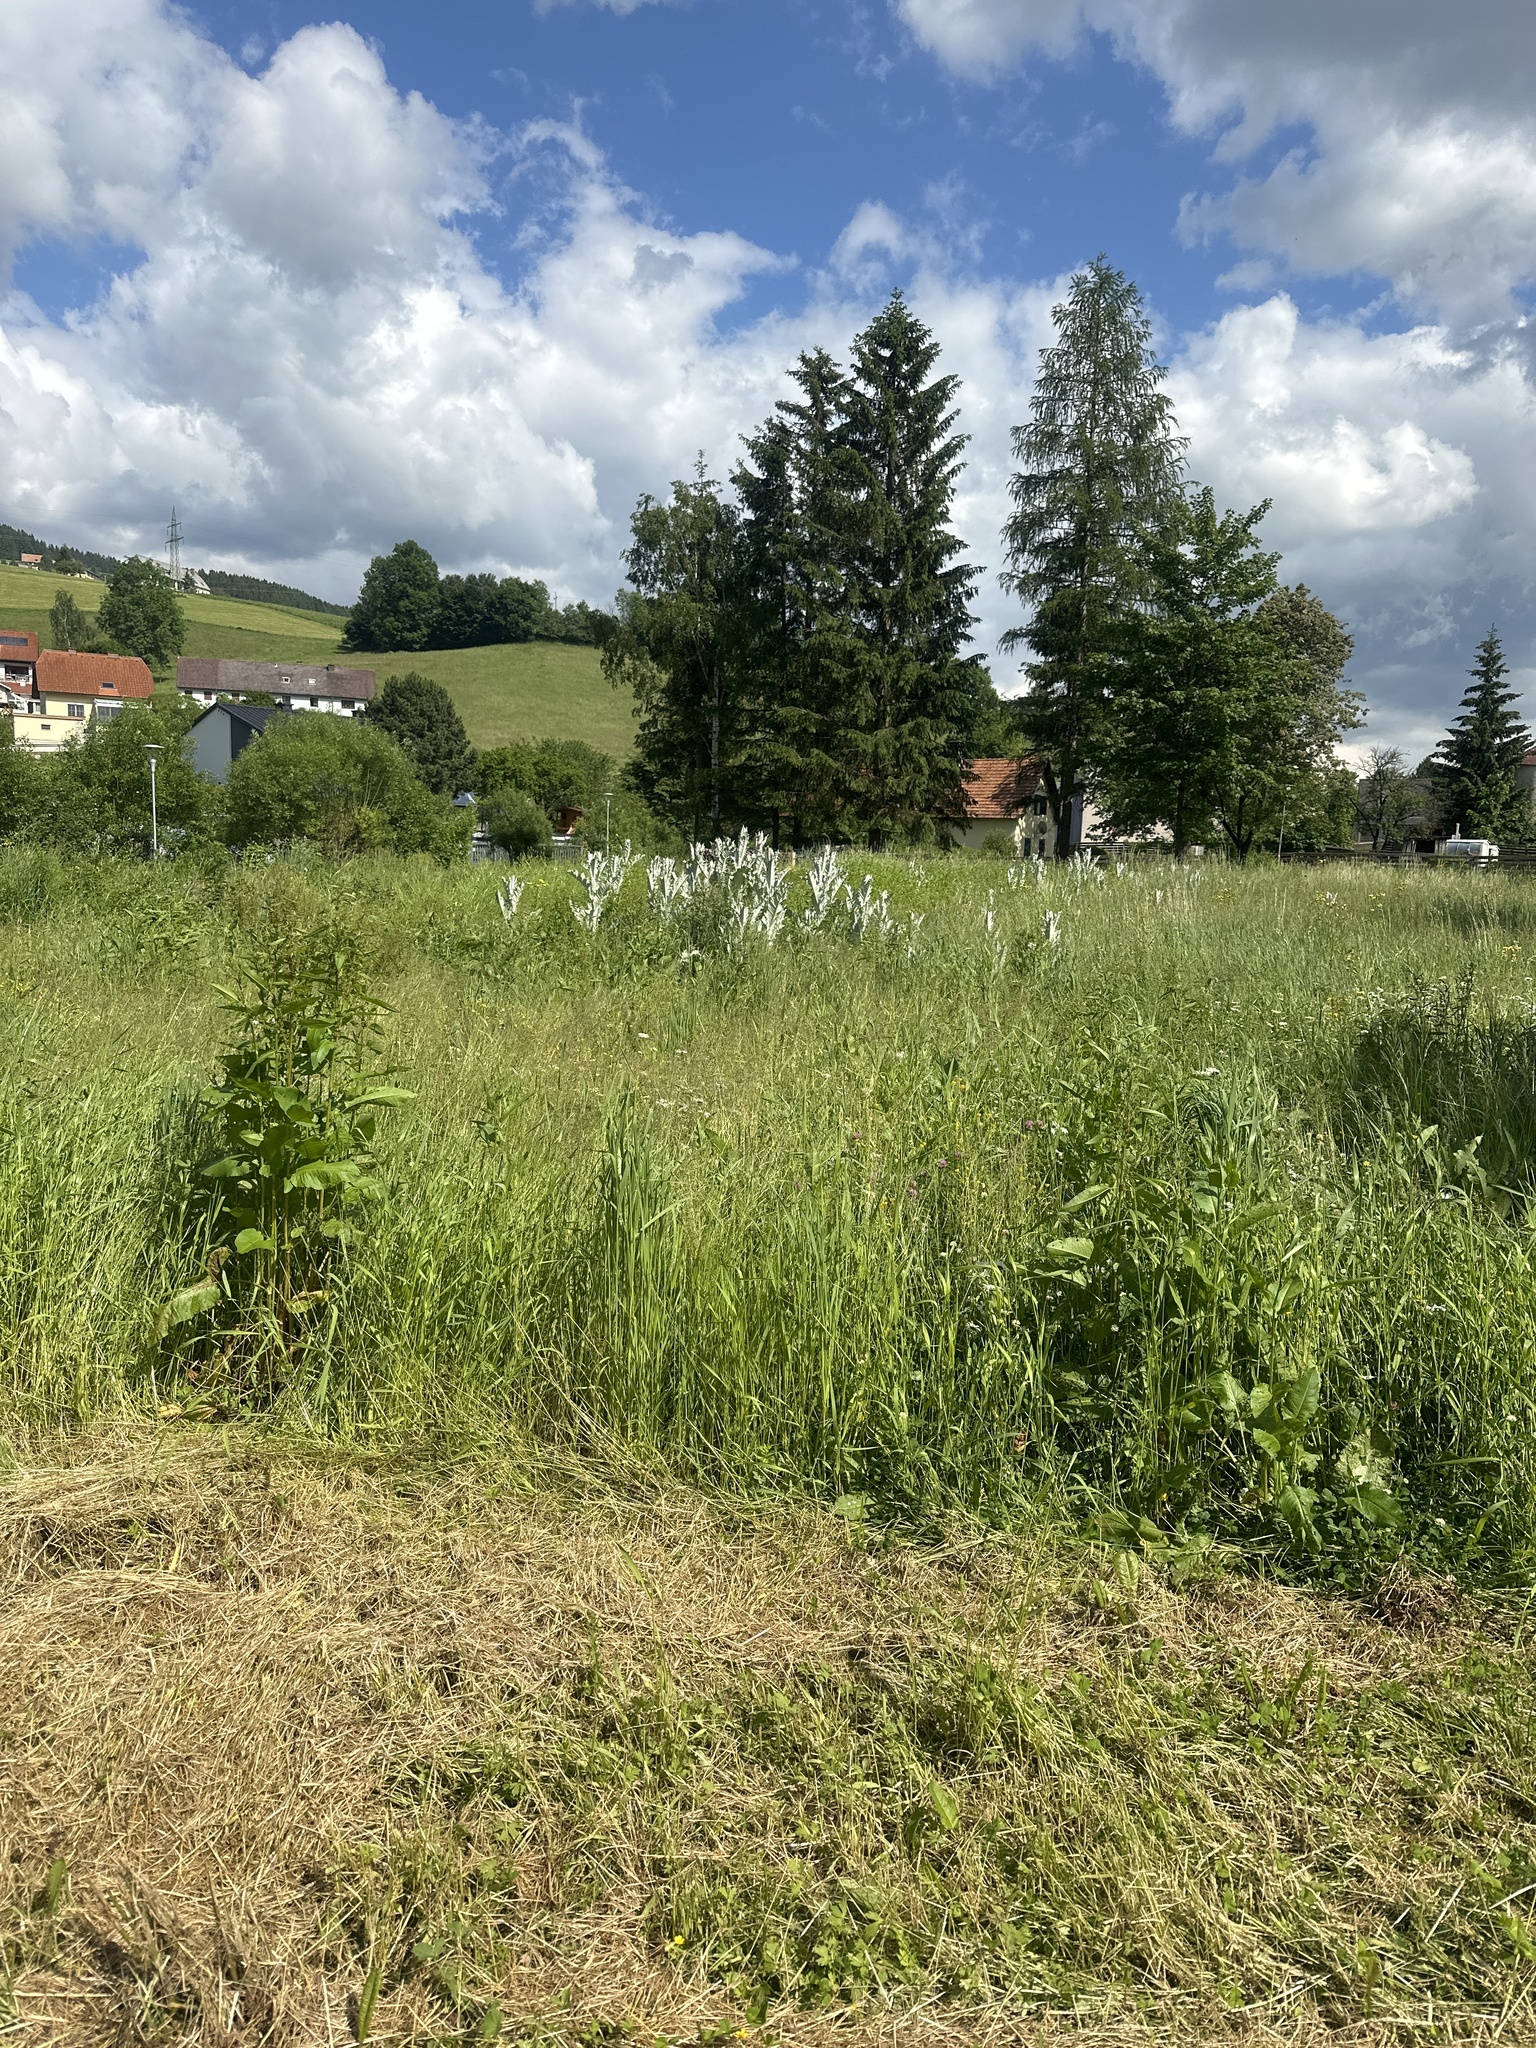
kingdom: Plantae
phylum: Tracheophyta
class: Magnoliopsida
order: Asterales
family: Asteraceae
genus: Onopordum
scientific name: Onopordum acanthium
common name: Scotch thistle
